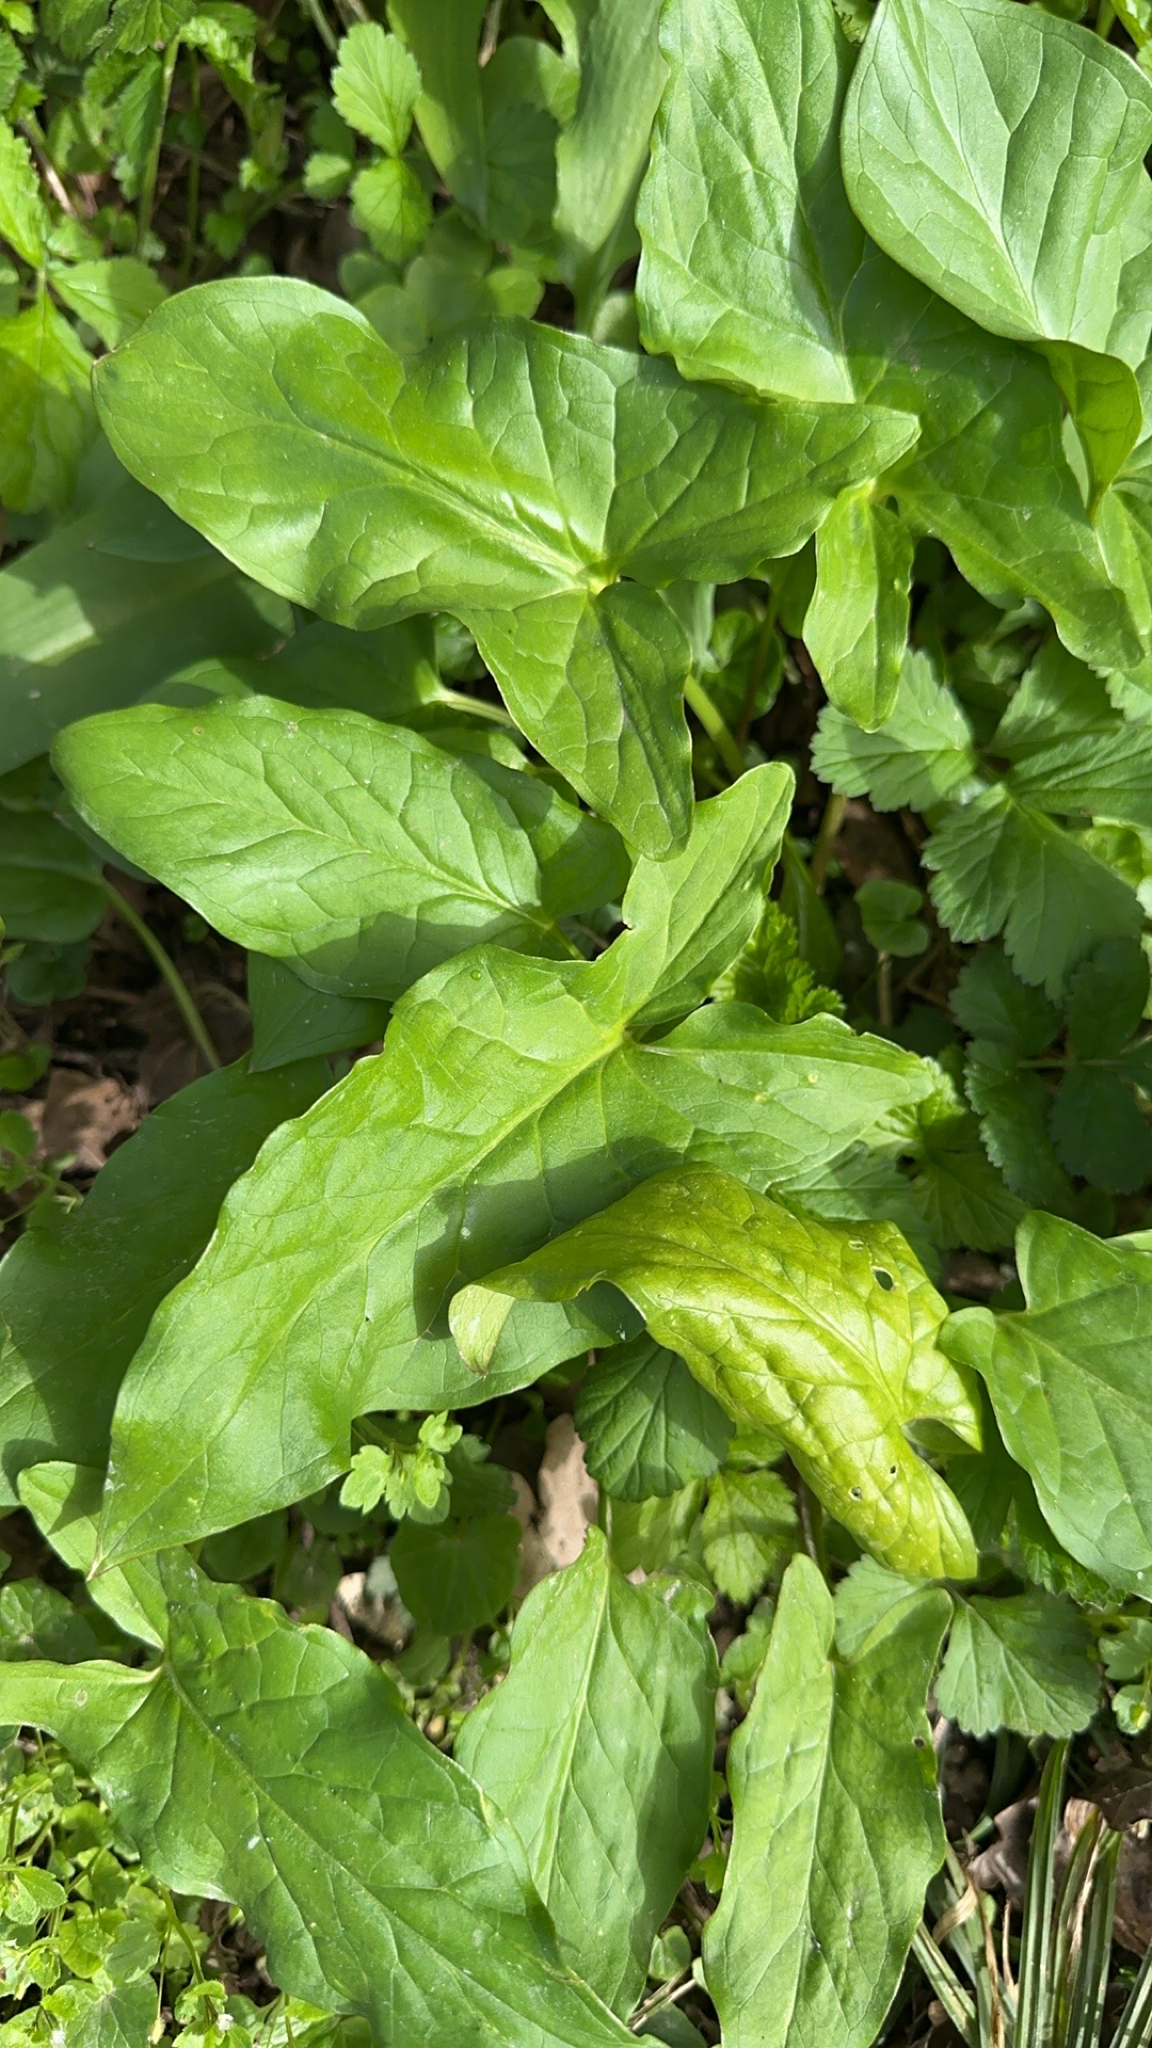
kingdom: Plantae
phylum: Tracheophyta
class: Liliopsida
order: Alismatales
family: Araceae
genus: Arum
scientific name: Arum maculatum
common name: Lords-and-ladies
